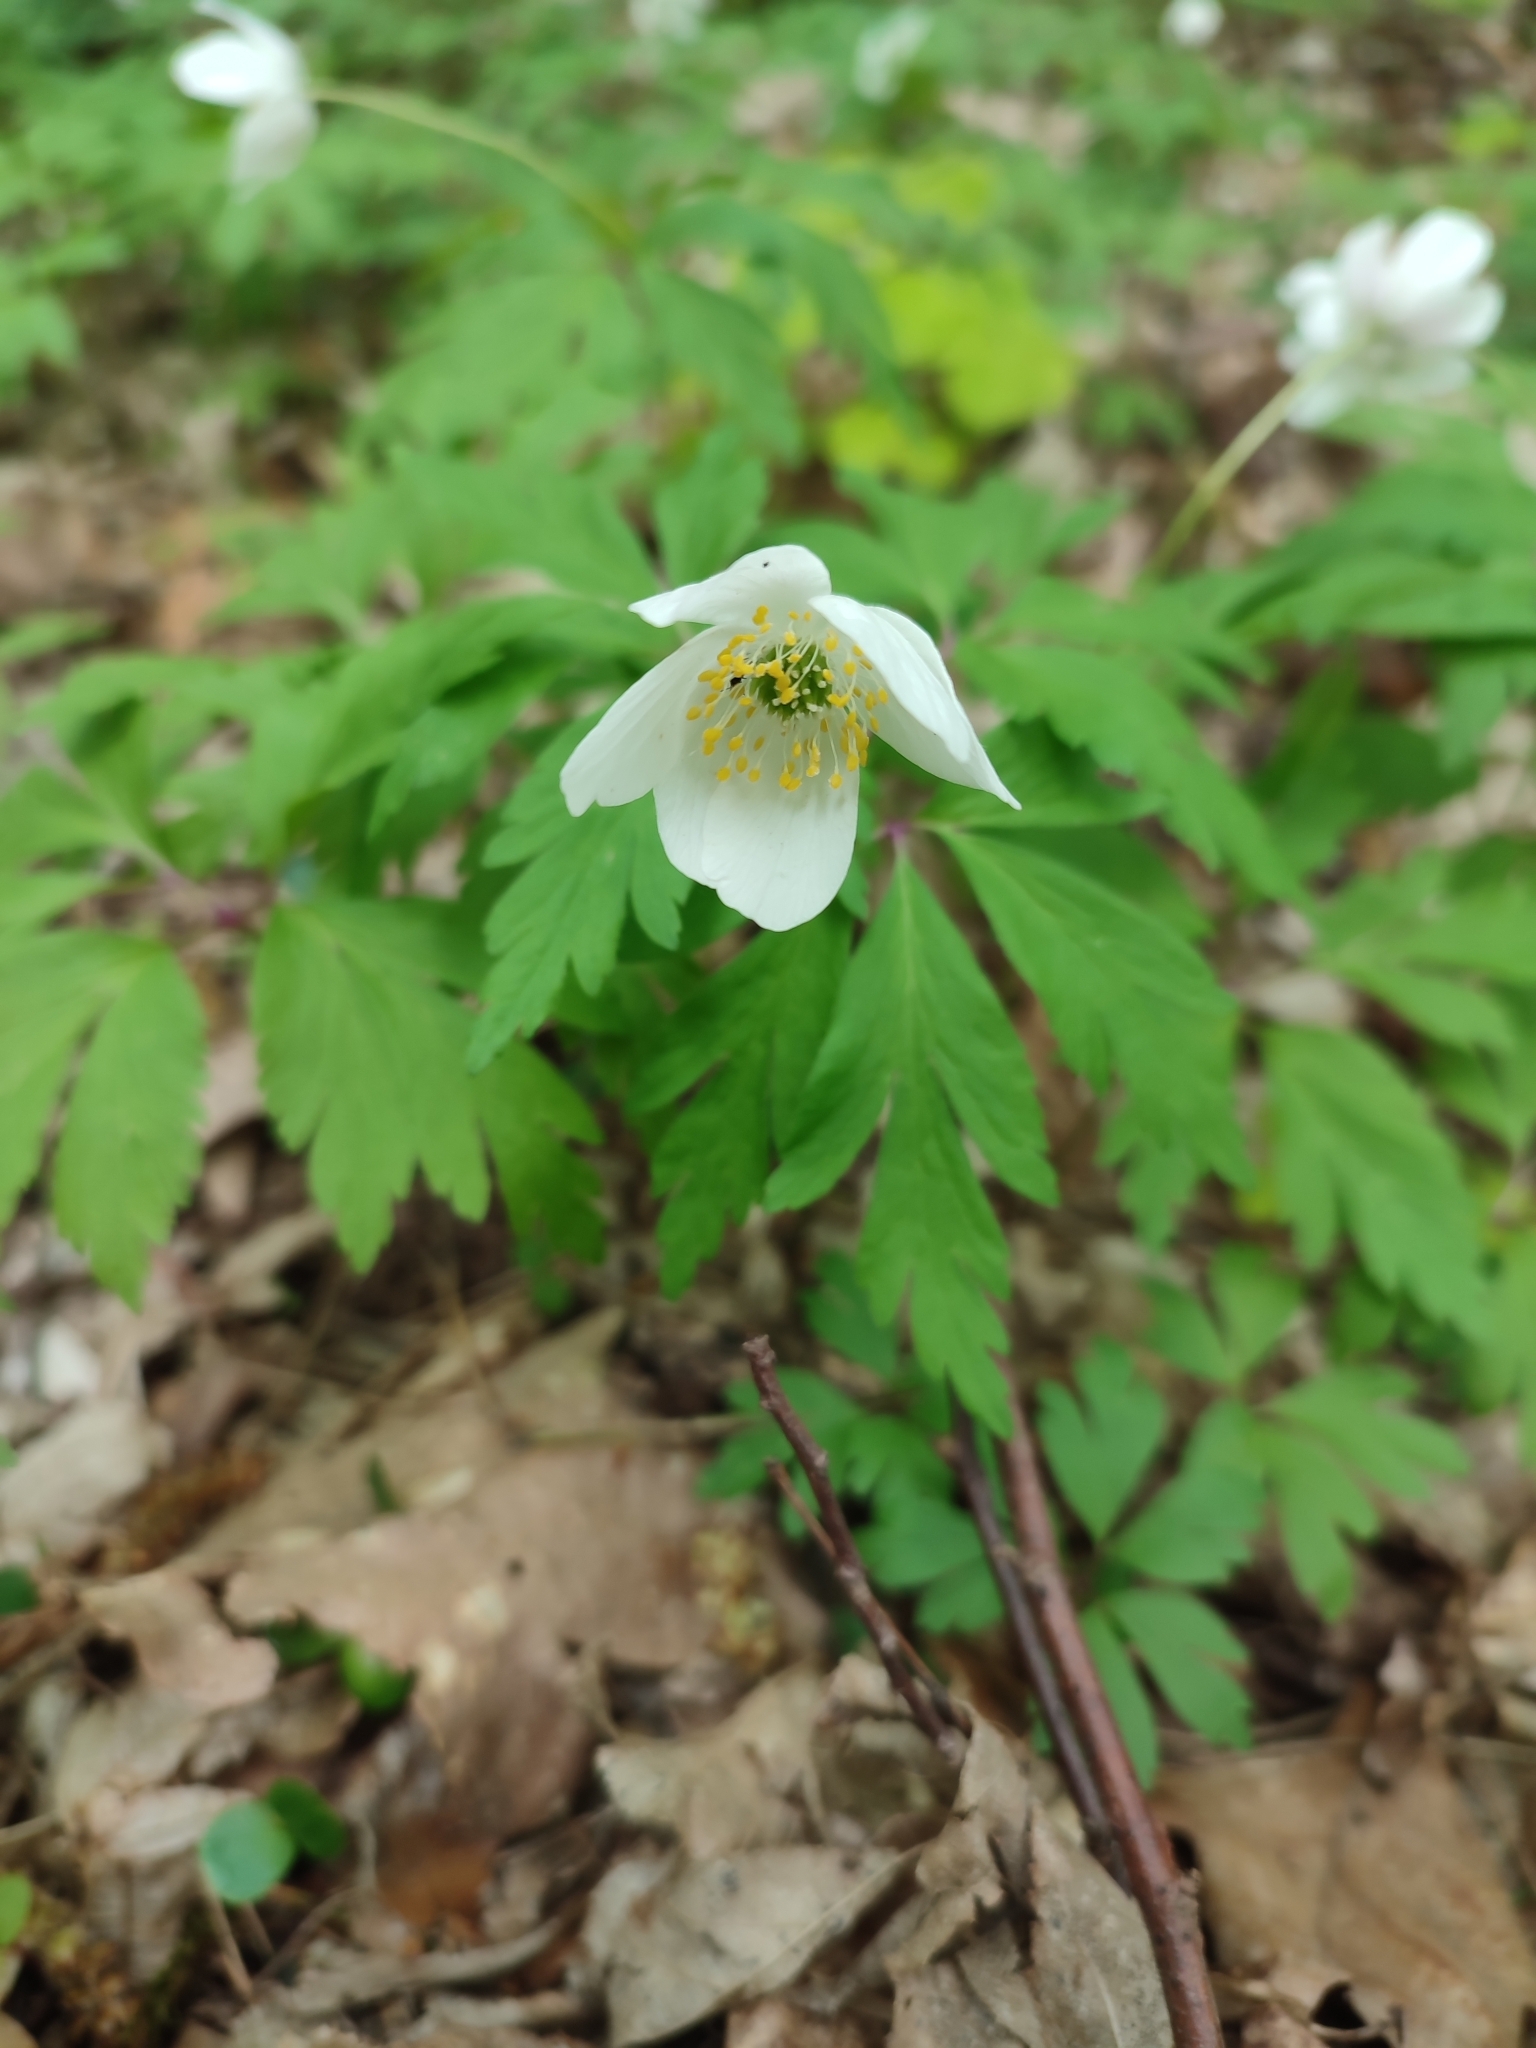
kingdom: Plantae
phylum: Tracheophyta
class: Magnoliopsida
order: Ranunculales
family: Ranunculaceae
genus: Anemone
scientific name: Anemone nemorosa
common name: Wood anemone
